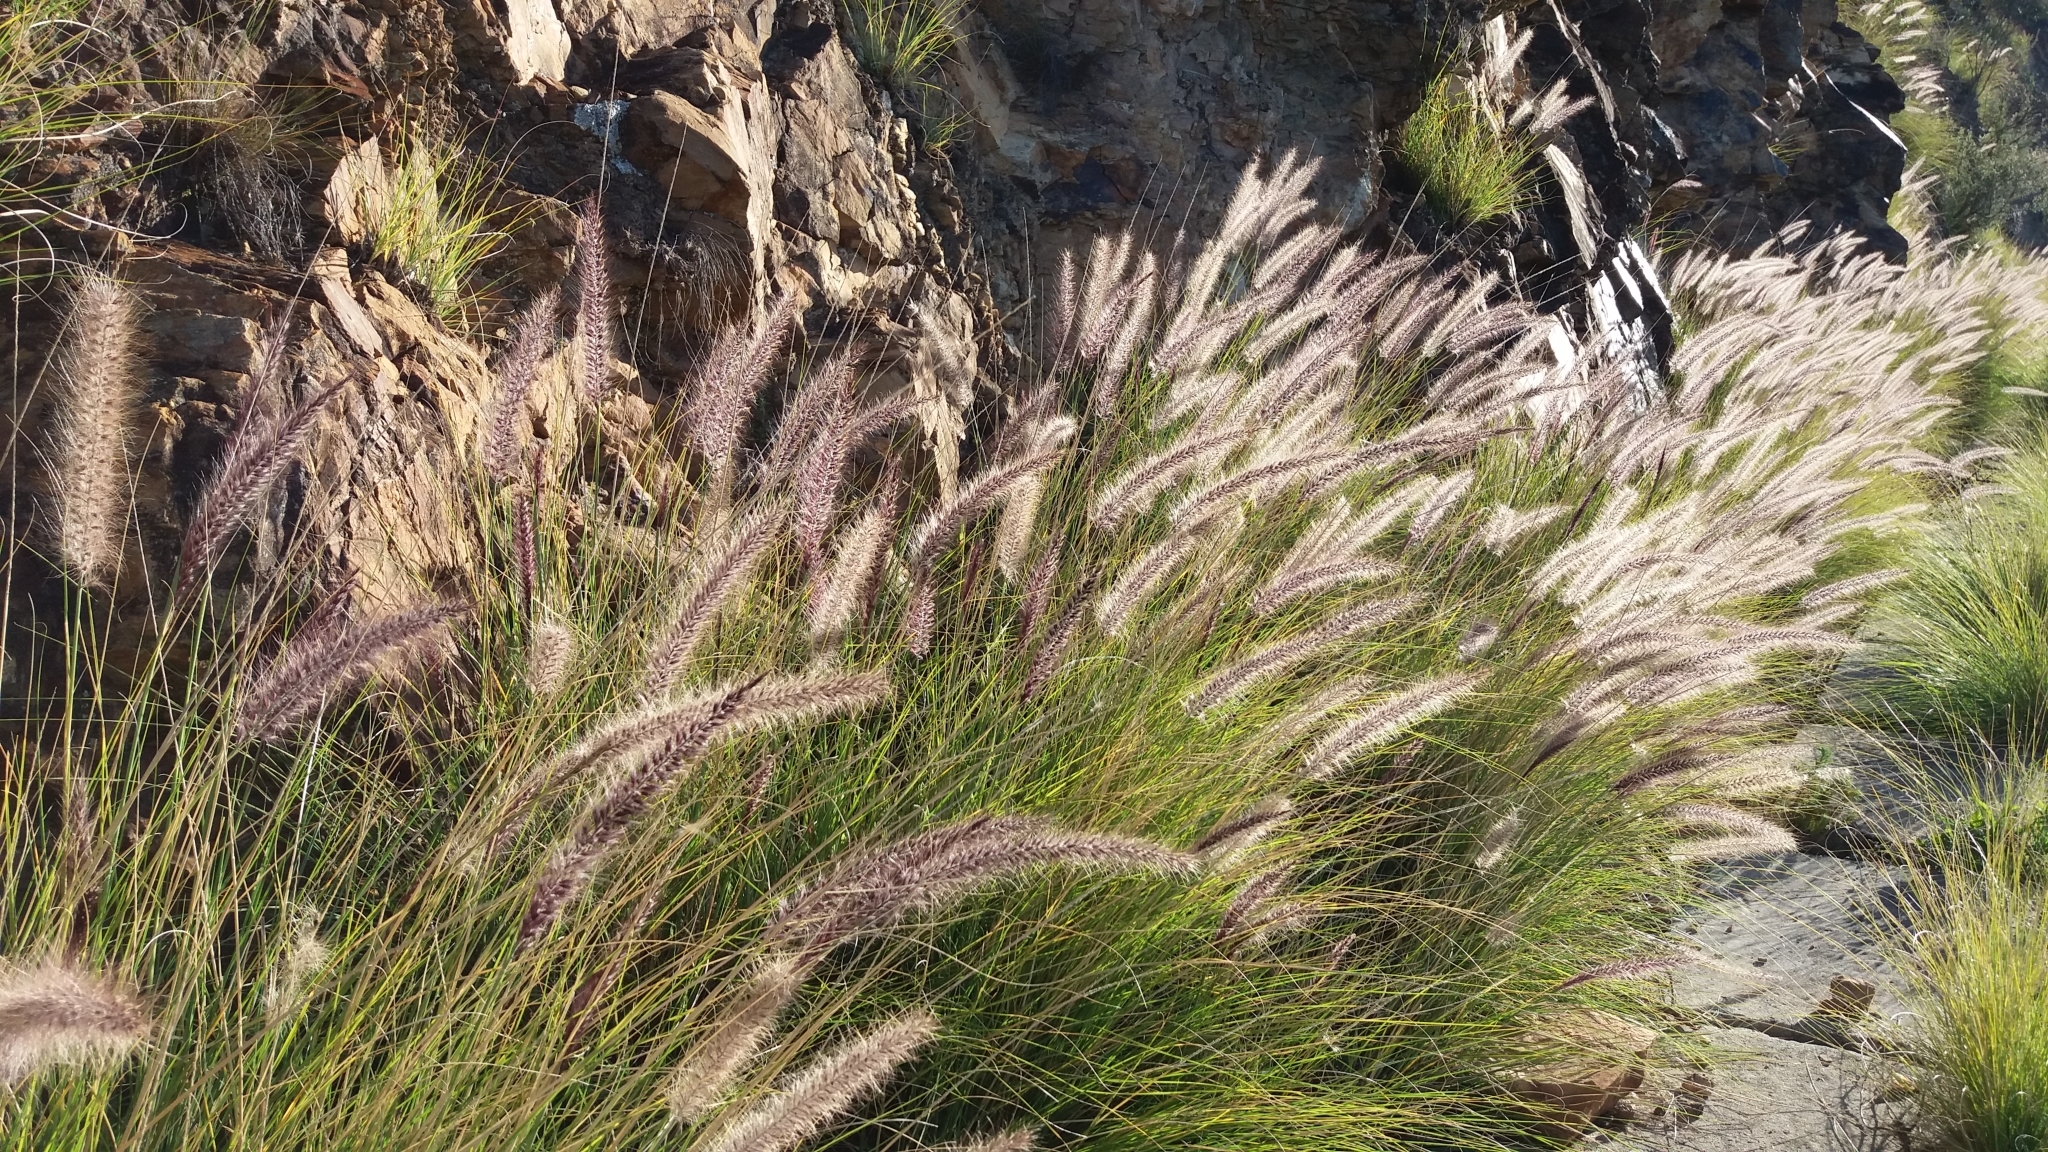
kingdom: Plantae
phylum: Tracheophyta
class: Liliopsida
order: Poales
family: Poaceae
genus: Cenchrus
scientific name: Cenchrus setaceus
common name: Crimson fountaingrass
